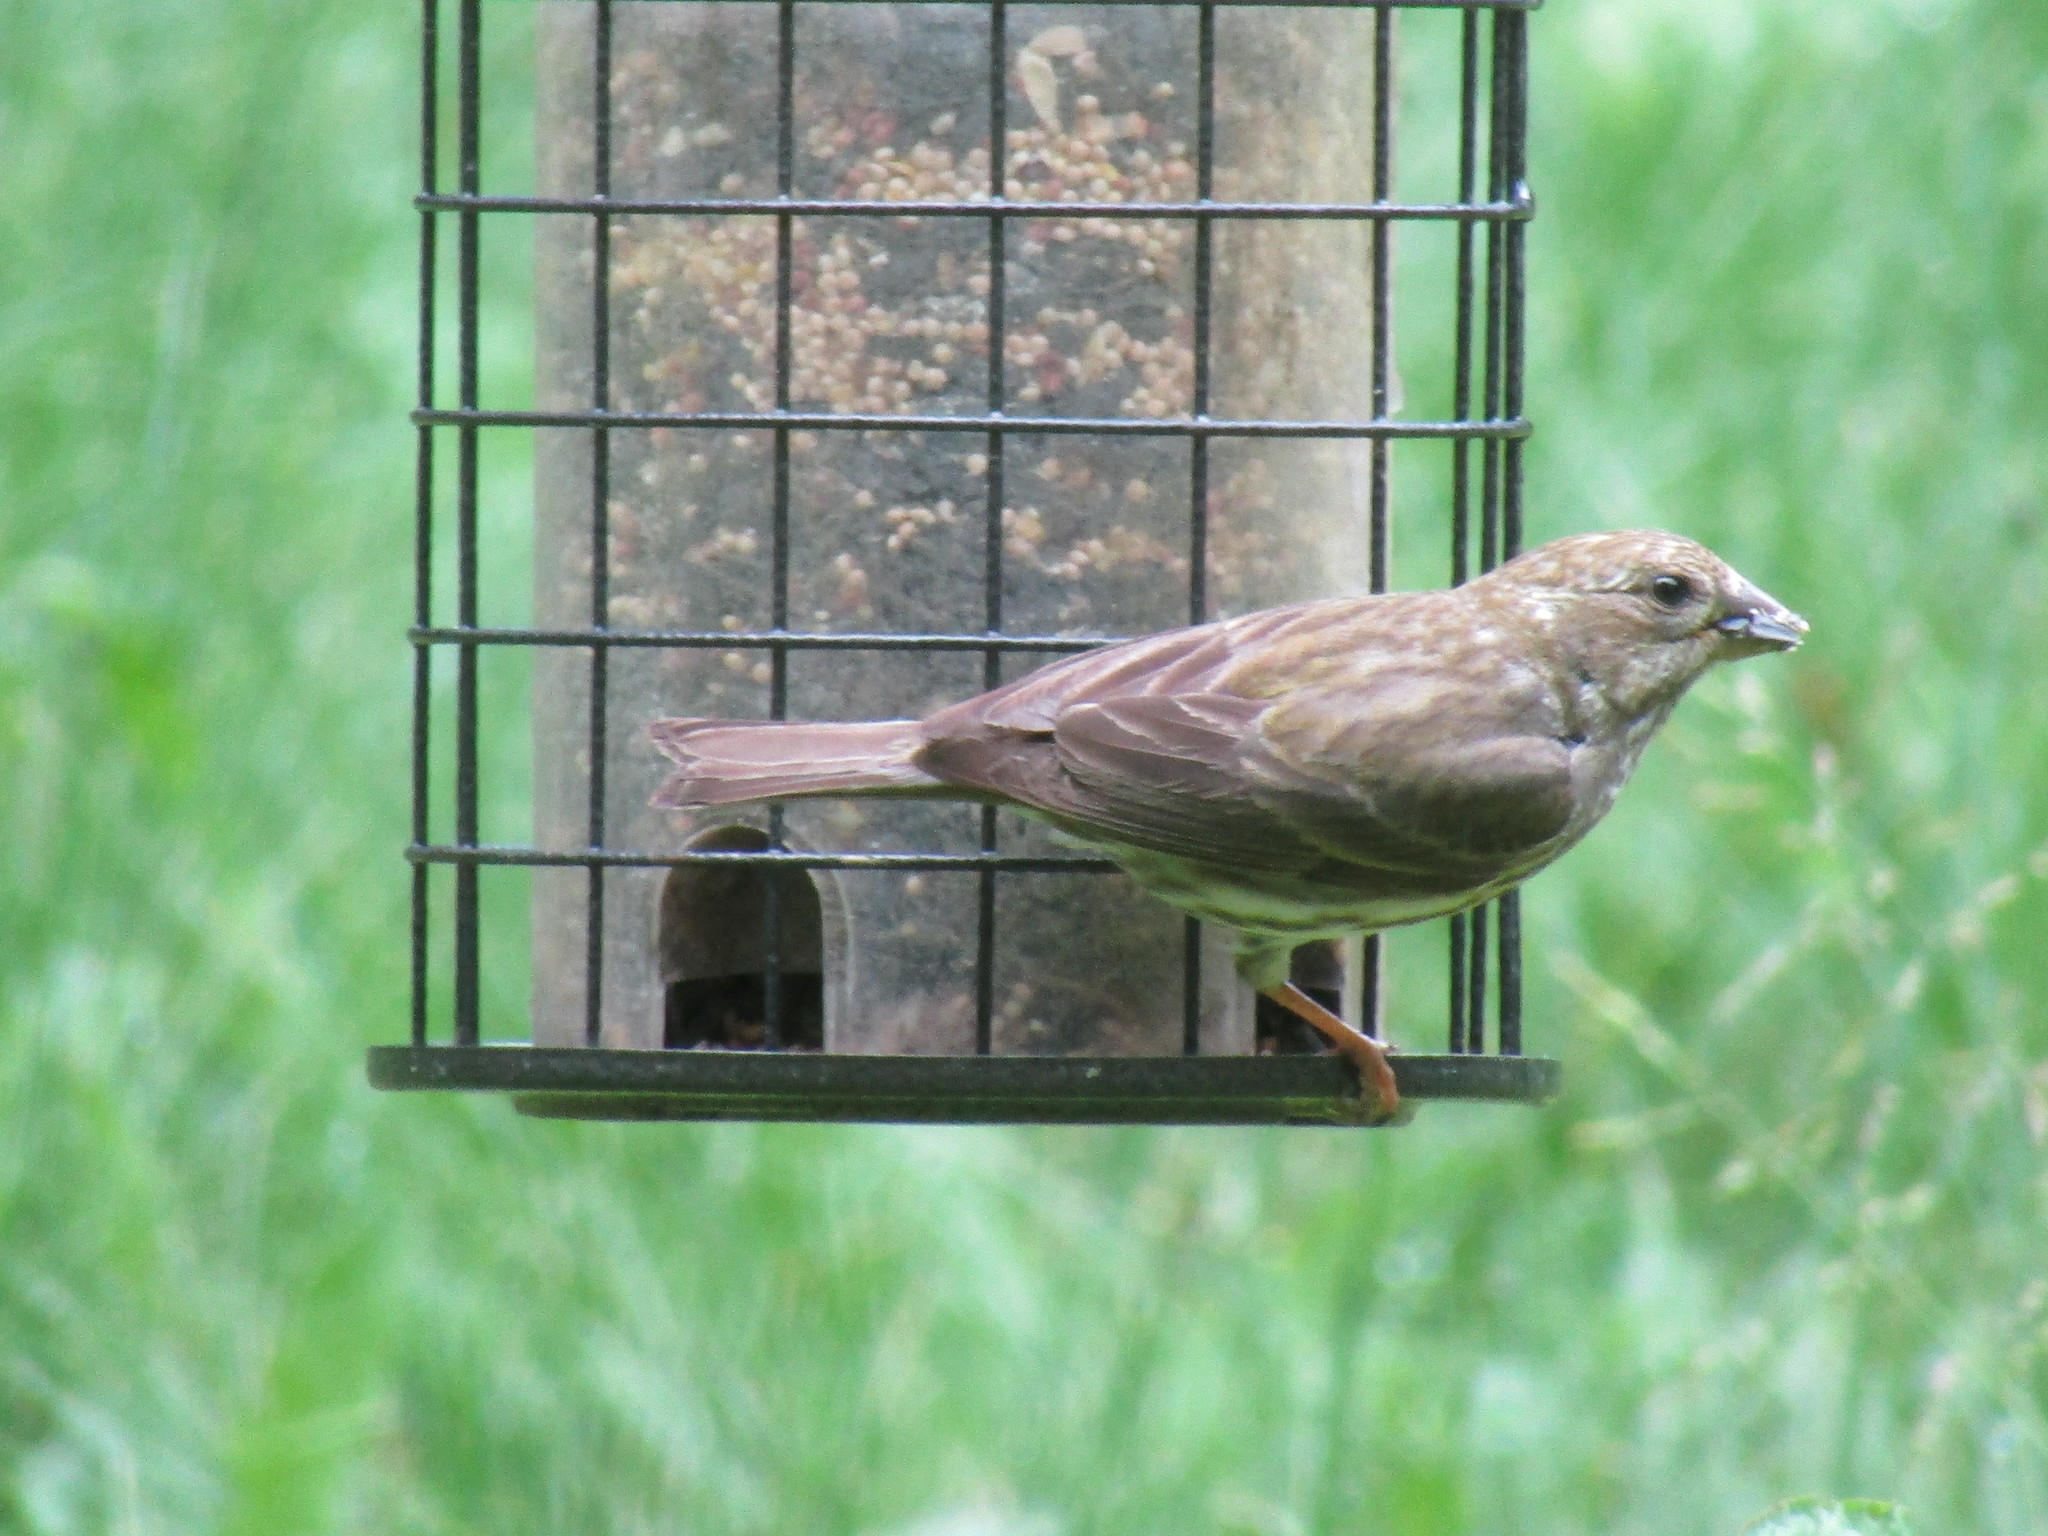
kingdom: Animalia
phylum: Chordata
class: Aves
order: Passeriformes
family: Fringillidae
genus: Haemorhous
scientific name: Haemorhous mexicanus
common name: House finch
